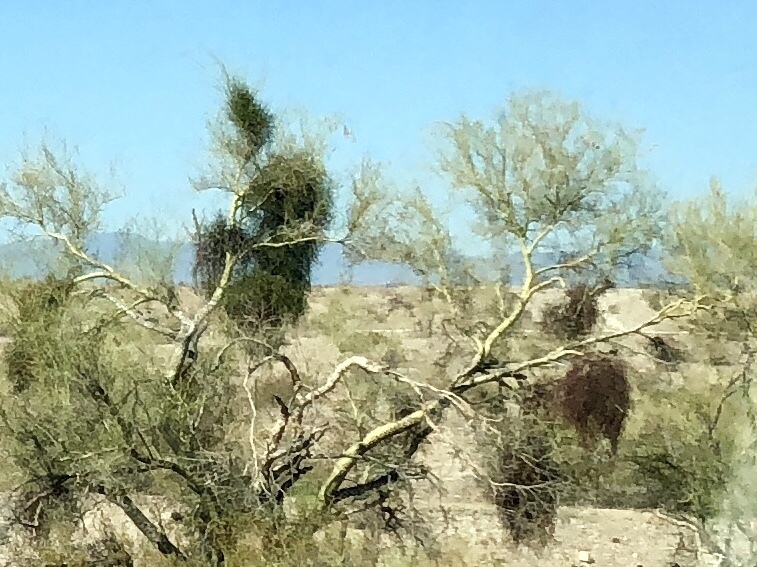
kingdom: Plantae
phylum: Tracheophyta
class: Magnoliopsida
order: Santalales
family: Viscaceae
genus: Phoradendron
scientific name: Phoradendron californicum
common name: Acacia mistletoe
